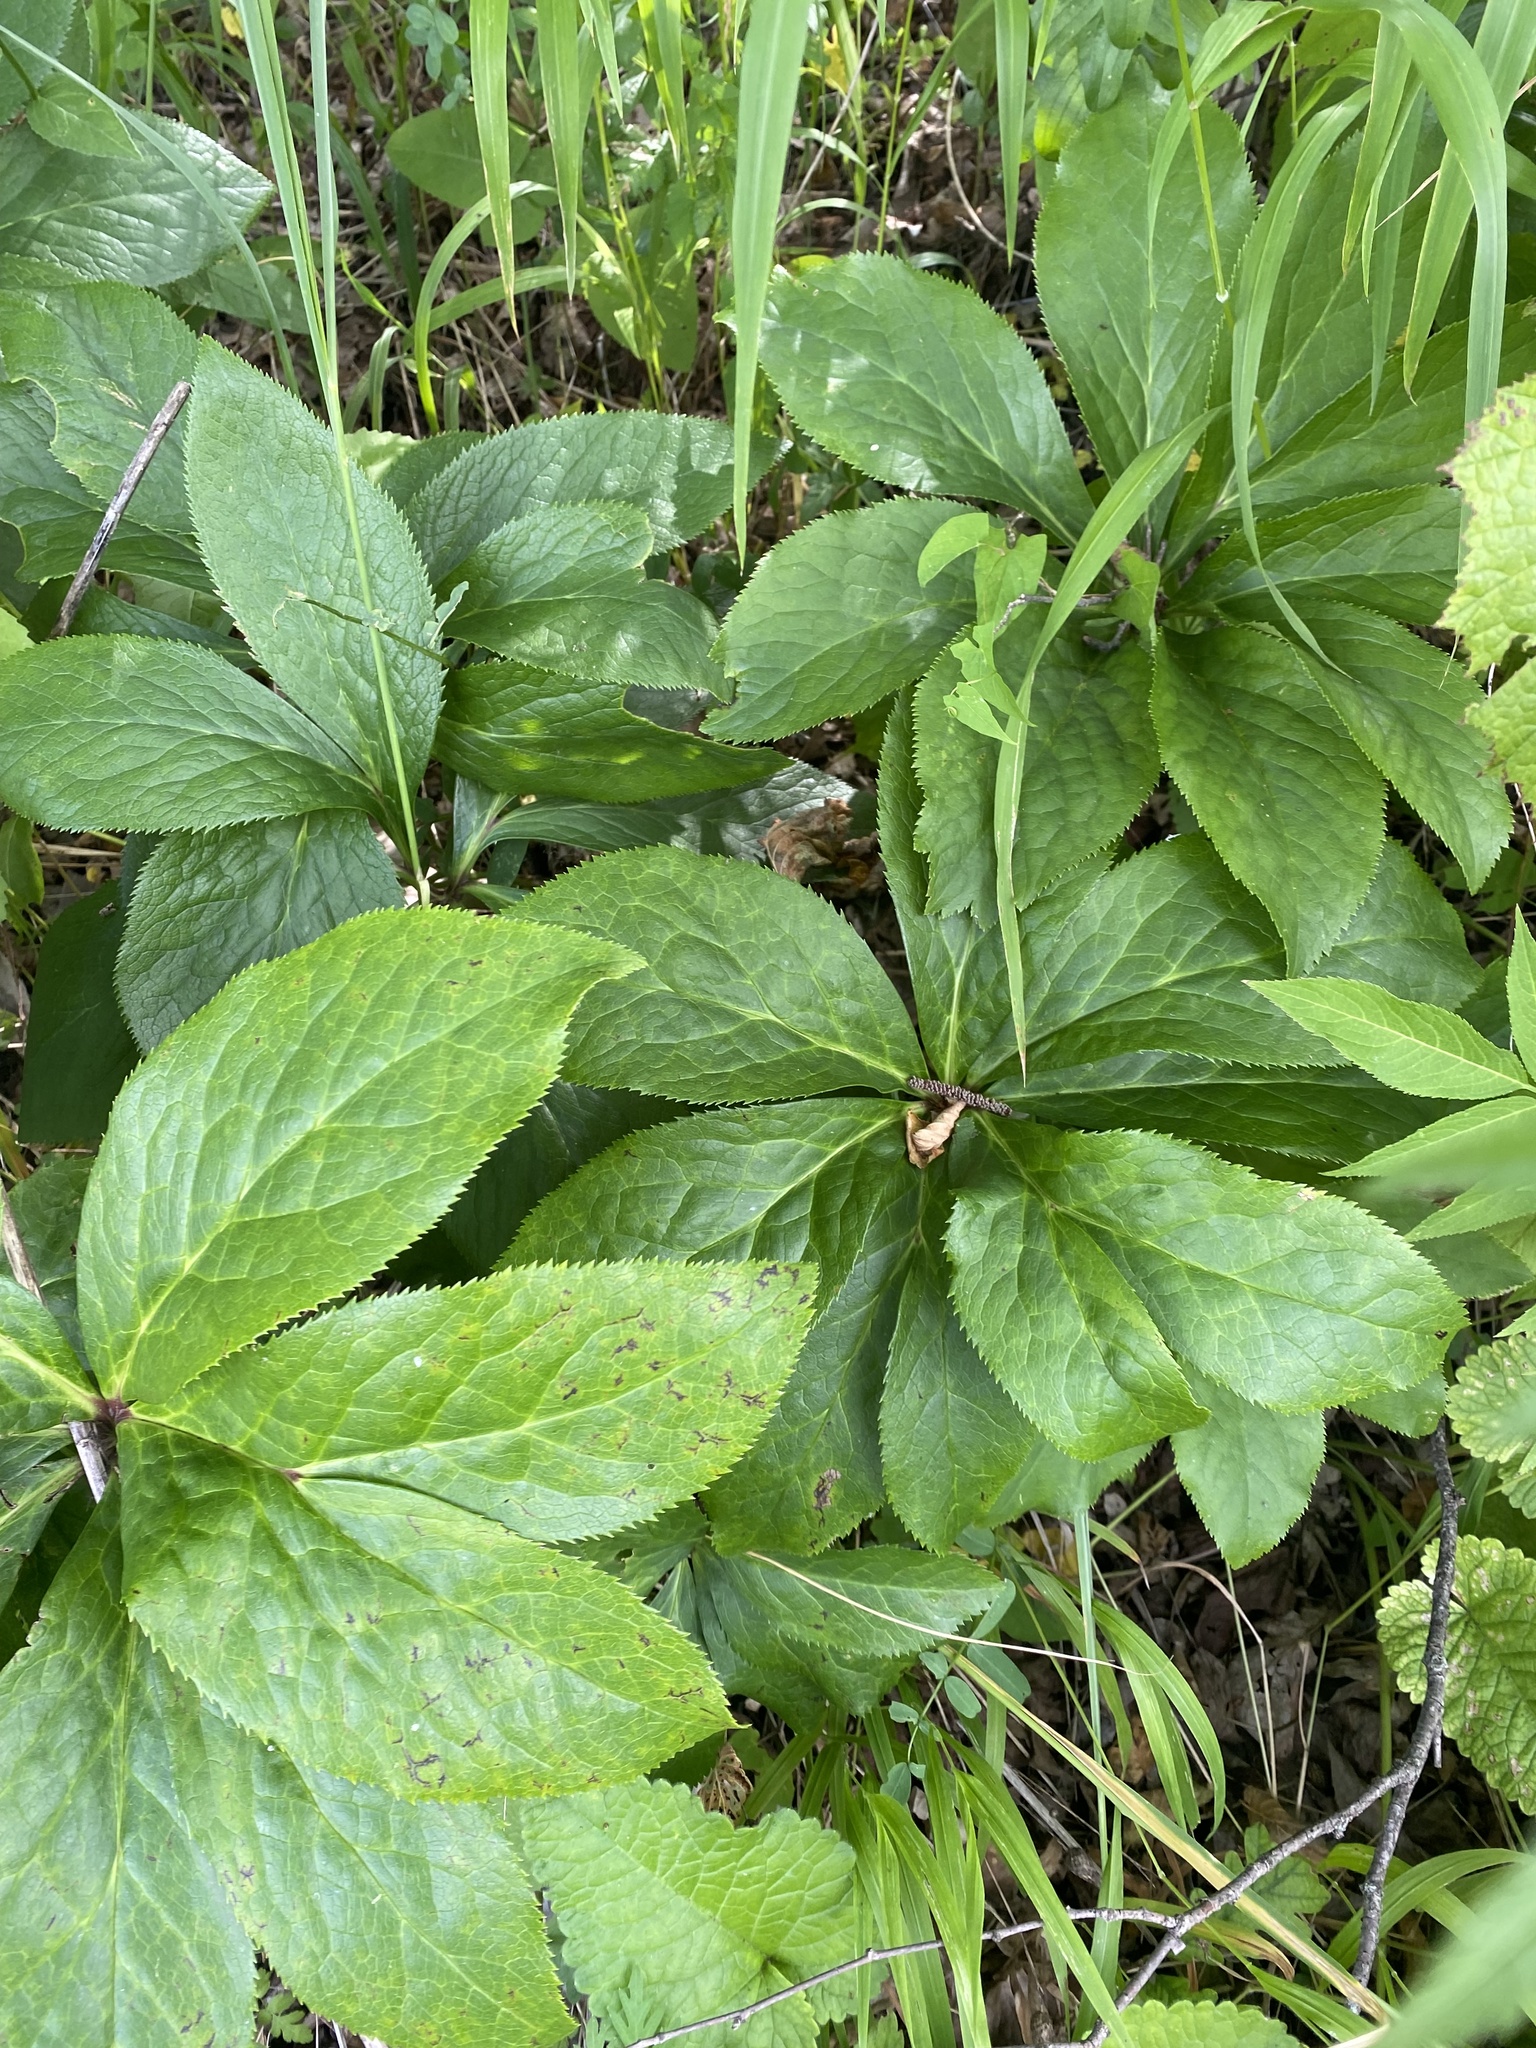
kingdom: Plantae
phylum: Tracheophyta
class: Magnoliopsida
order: Ranunculales
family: Ranunculaceae
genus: Helleborus
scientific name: Helleborus orientalis
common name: Lenten-rose
